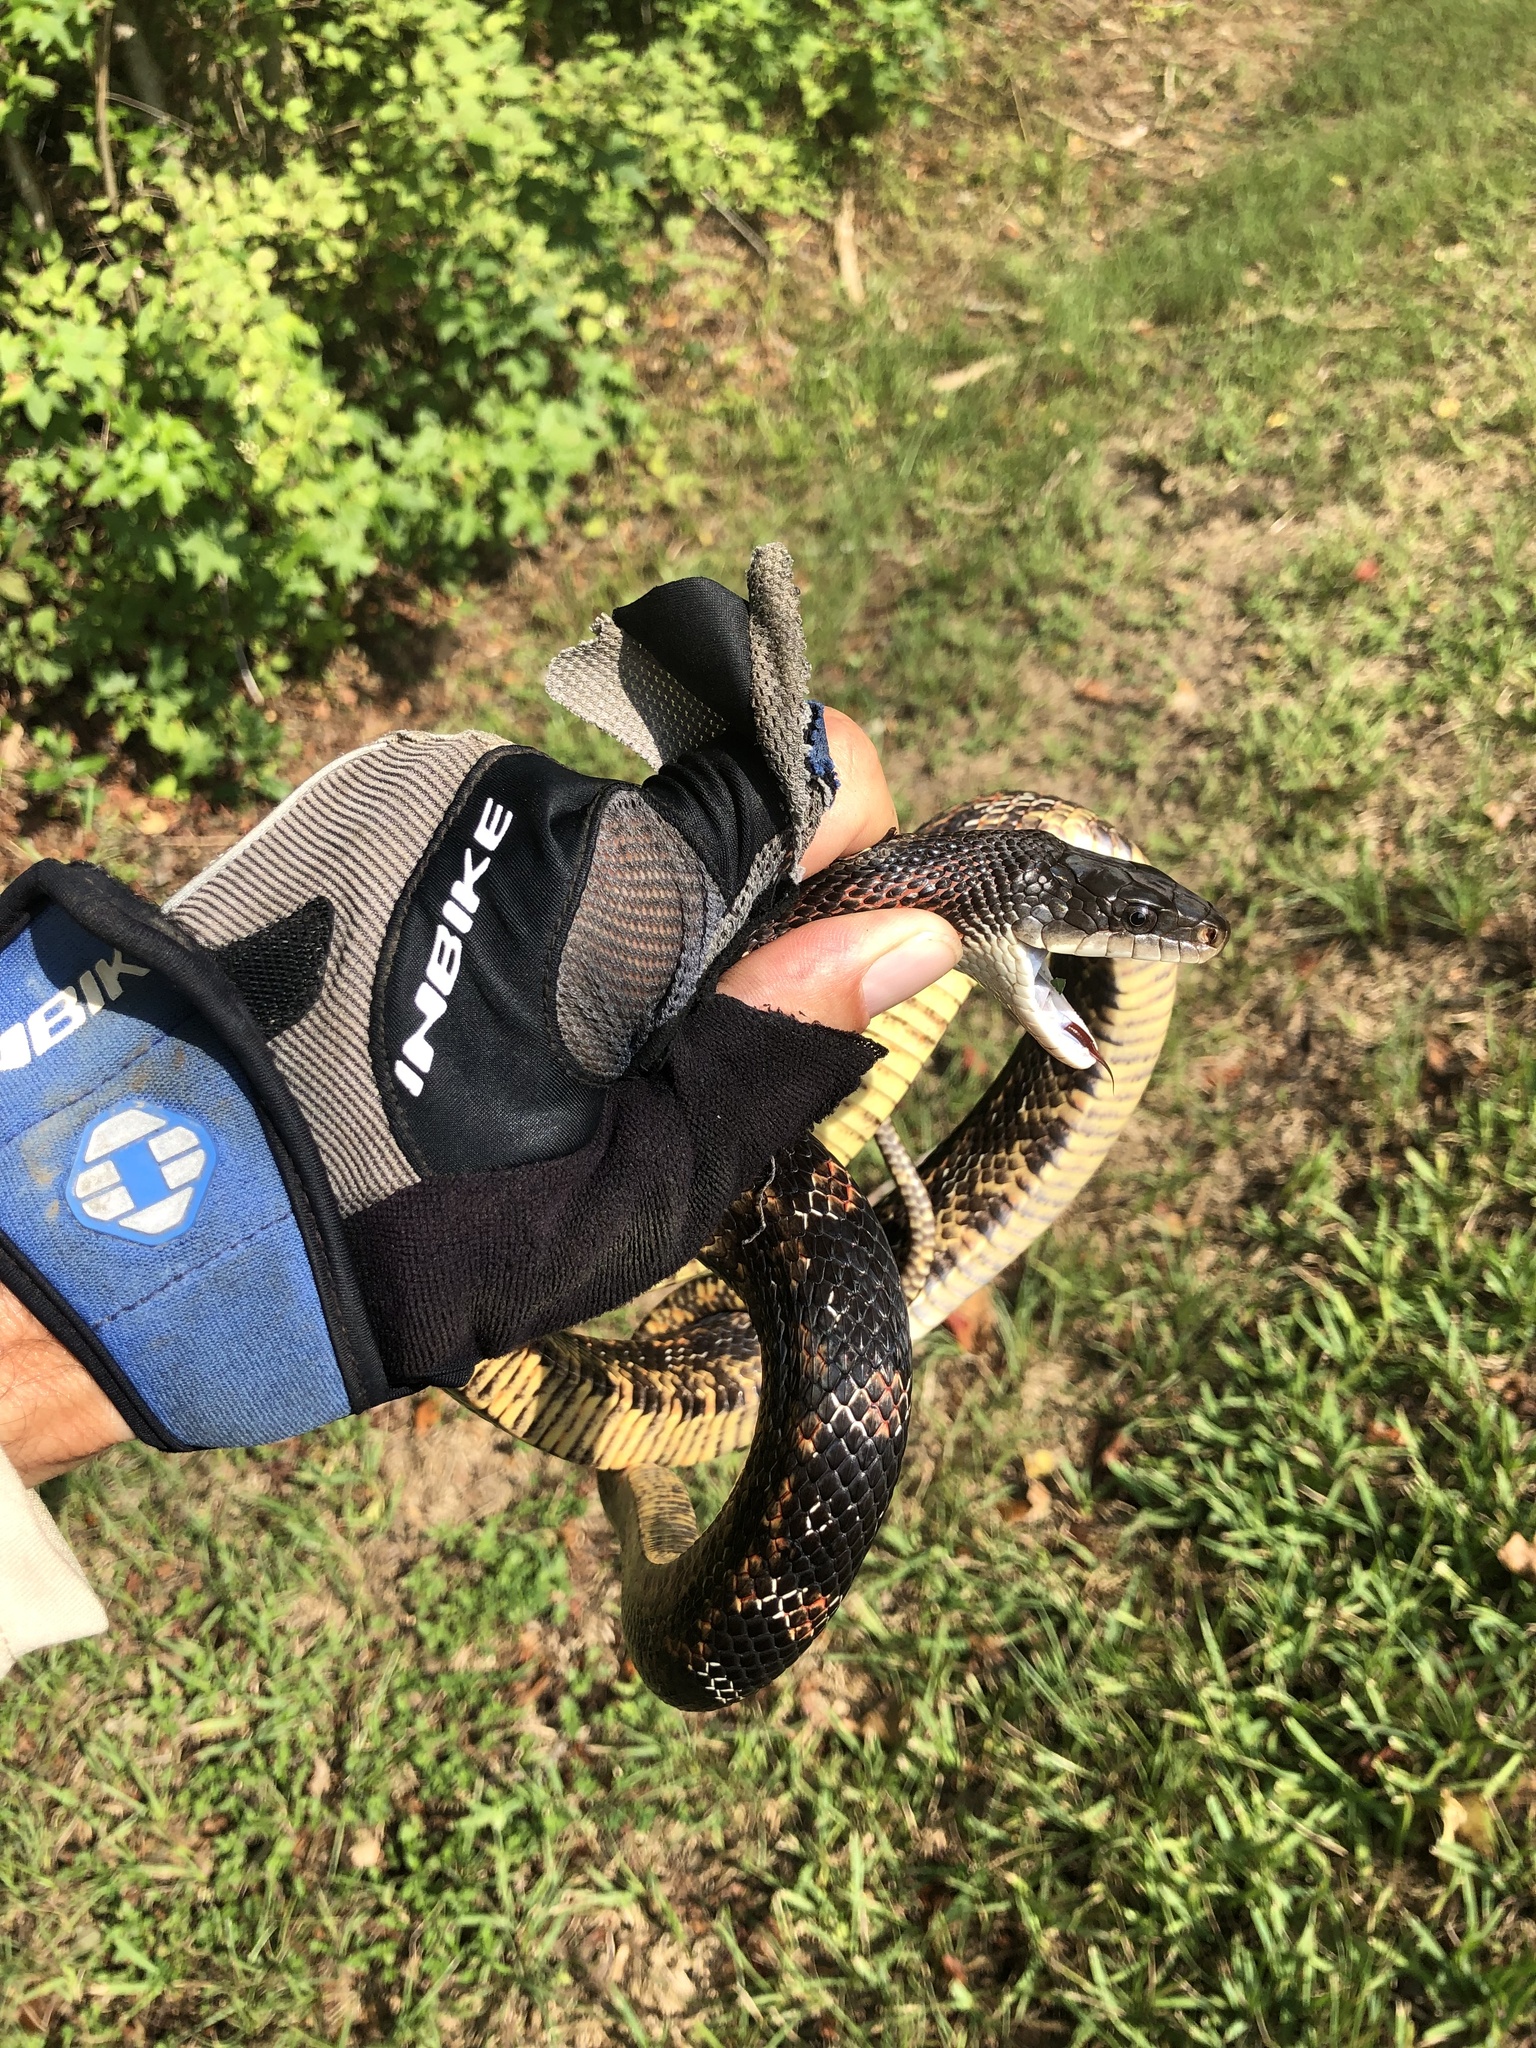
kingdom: Animalia
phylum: Chordata
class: Squamata
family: Colubridae
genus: Pantherophis
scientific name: Pantherophis obsoletus
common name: Black rat snake
